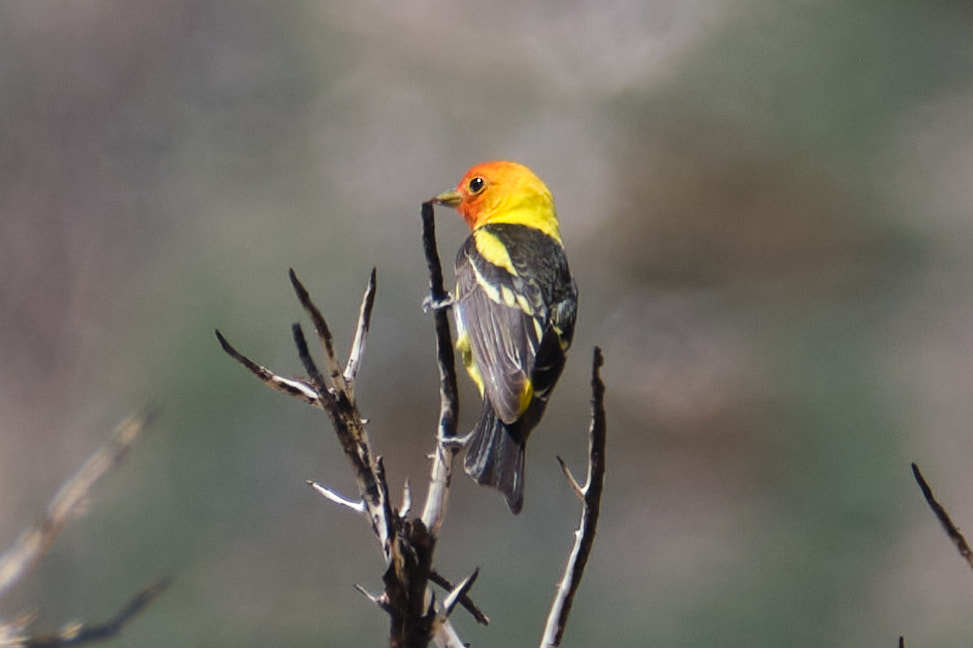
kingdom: Animalia
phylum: Chordata
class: Aves
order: Passeriformes
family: Cardinalidae
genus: Piranga
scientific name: Piranga ludoviciana
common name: Western tanager
